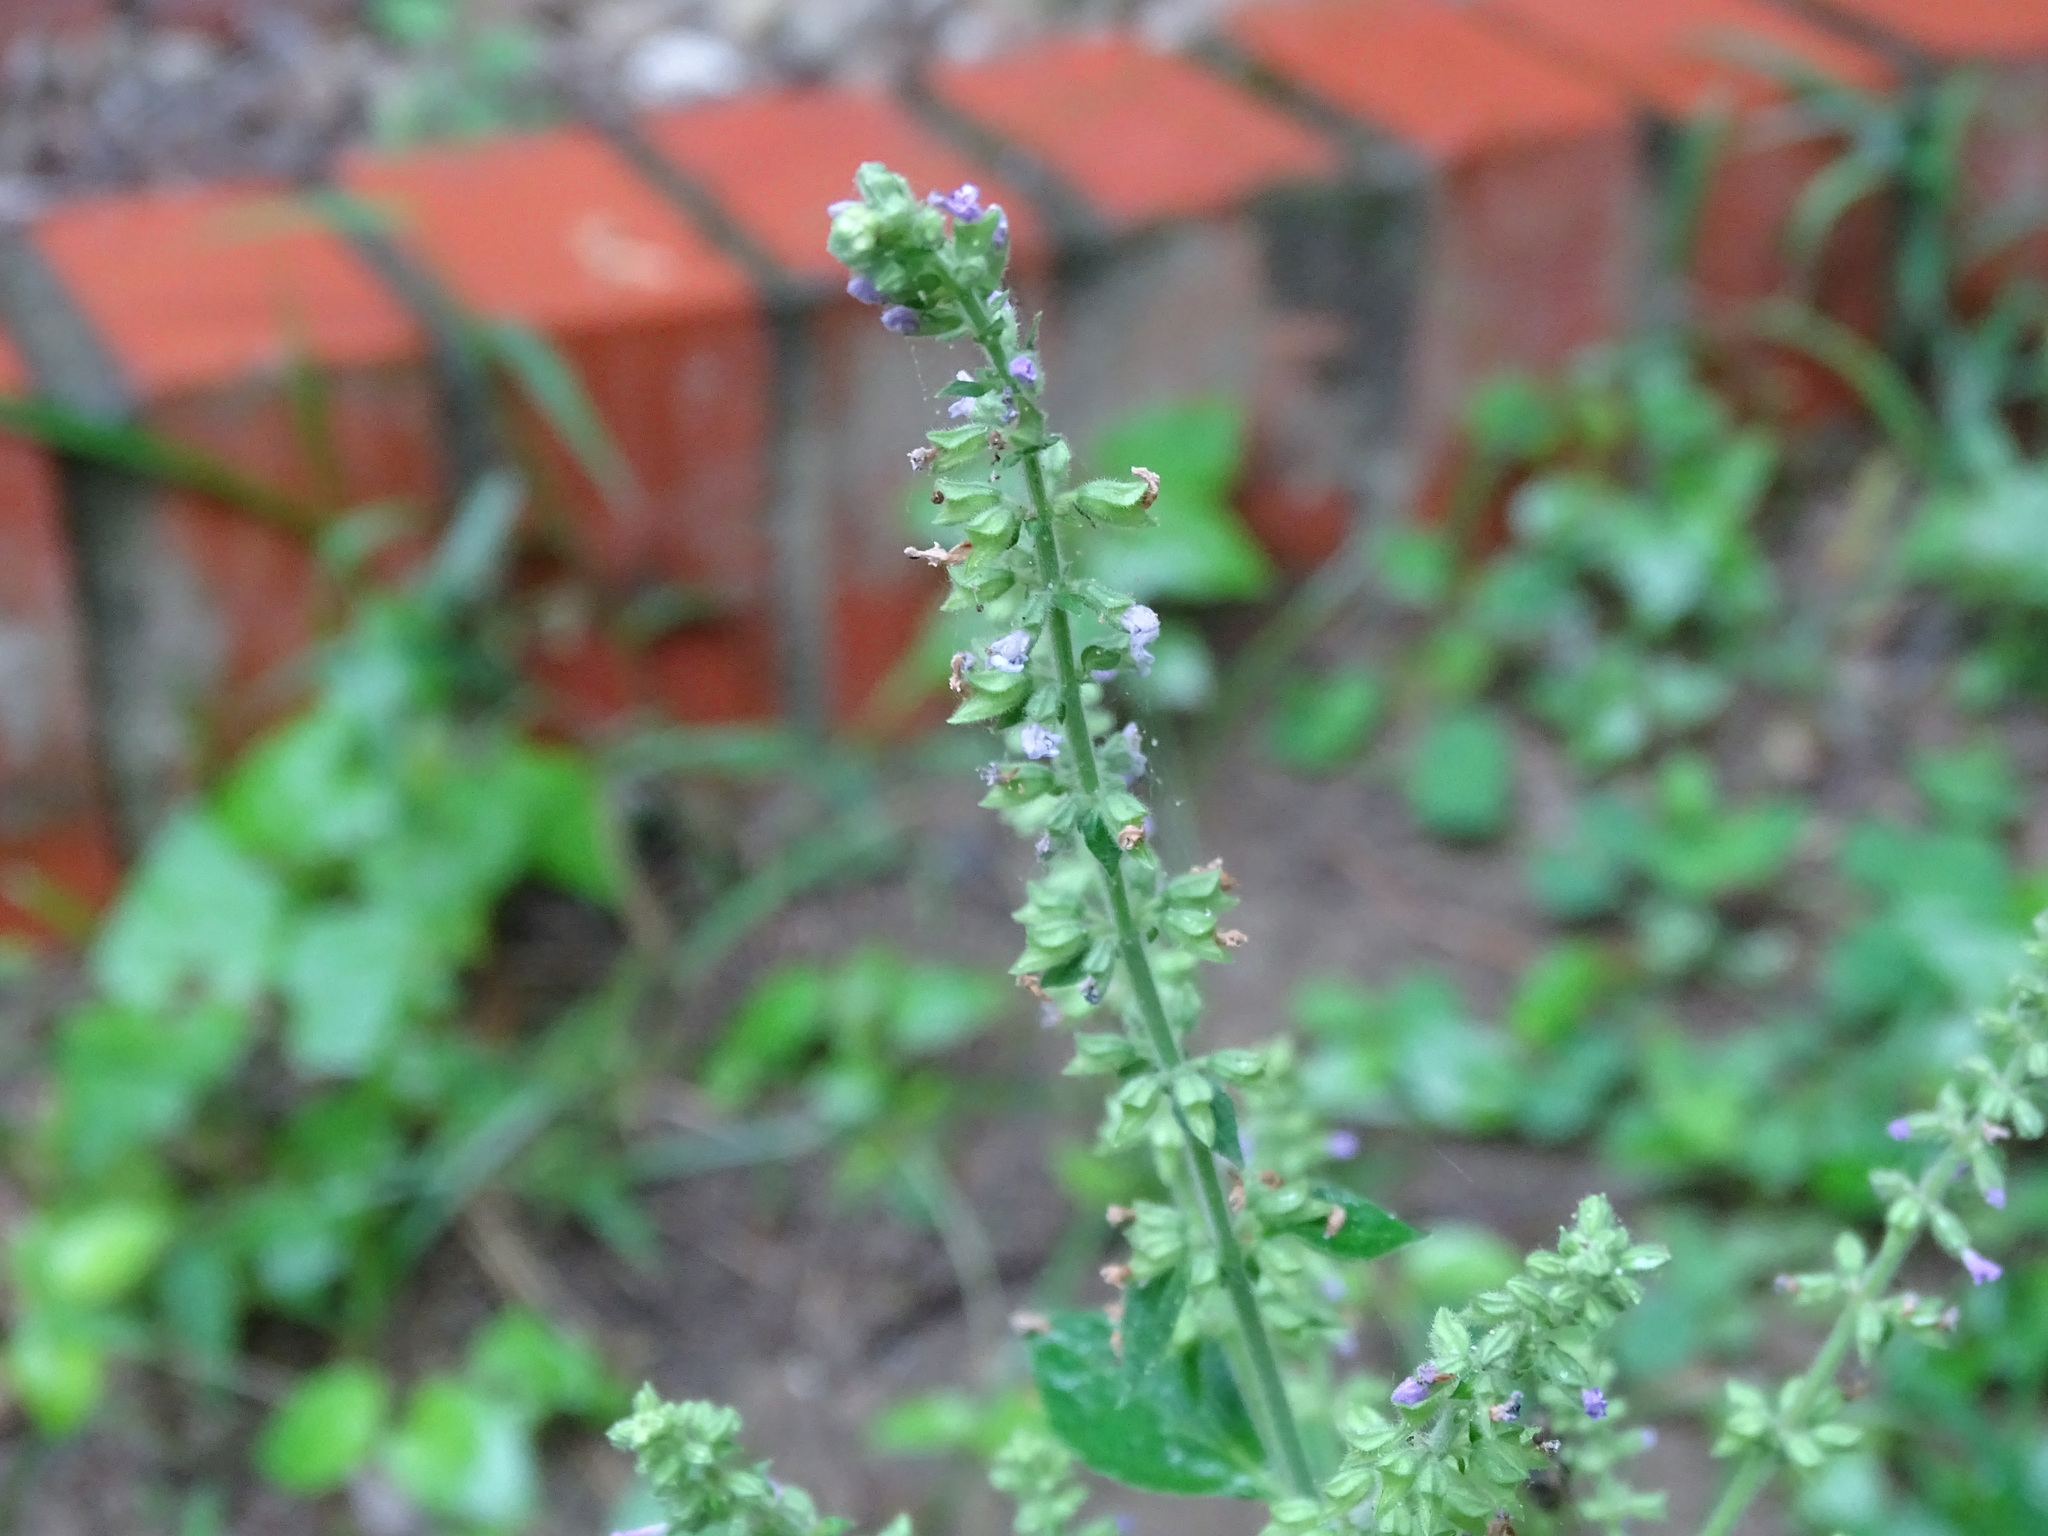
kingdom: Plantae
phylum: Tracheophyta
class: Magnoliopsida
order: Lamiales
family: Lamiaceae
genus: Salvia
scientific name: Salvia plebeia
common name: Australian sage
